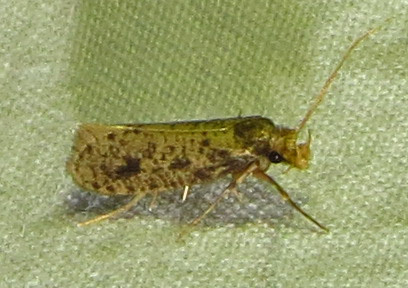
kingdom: Animalia
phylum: Arthropoda
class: Insecta
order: Lepidoptera
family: Tineidae
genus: Amydria
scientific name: Amydria effrentella
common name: Brown-blotched amydria moth
